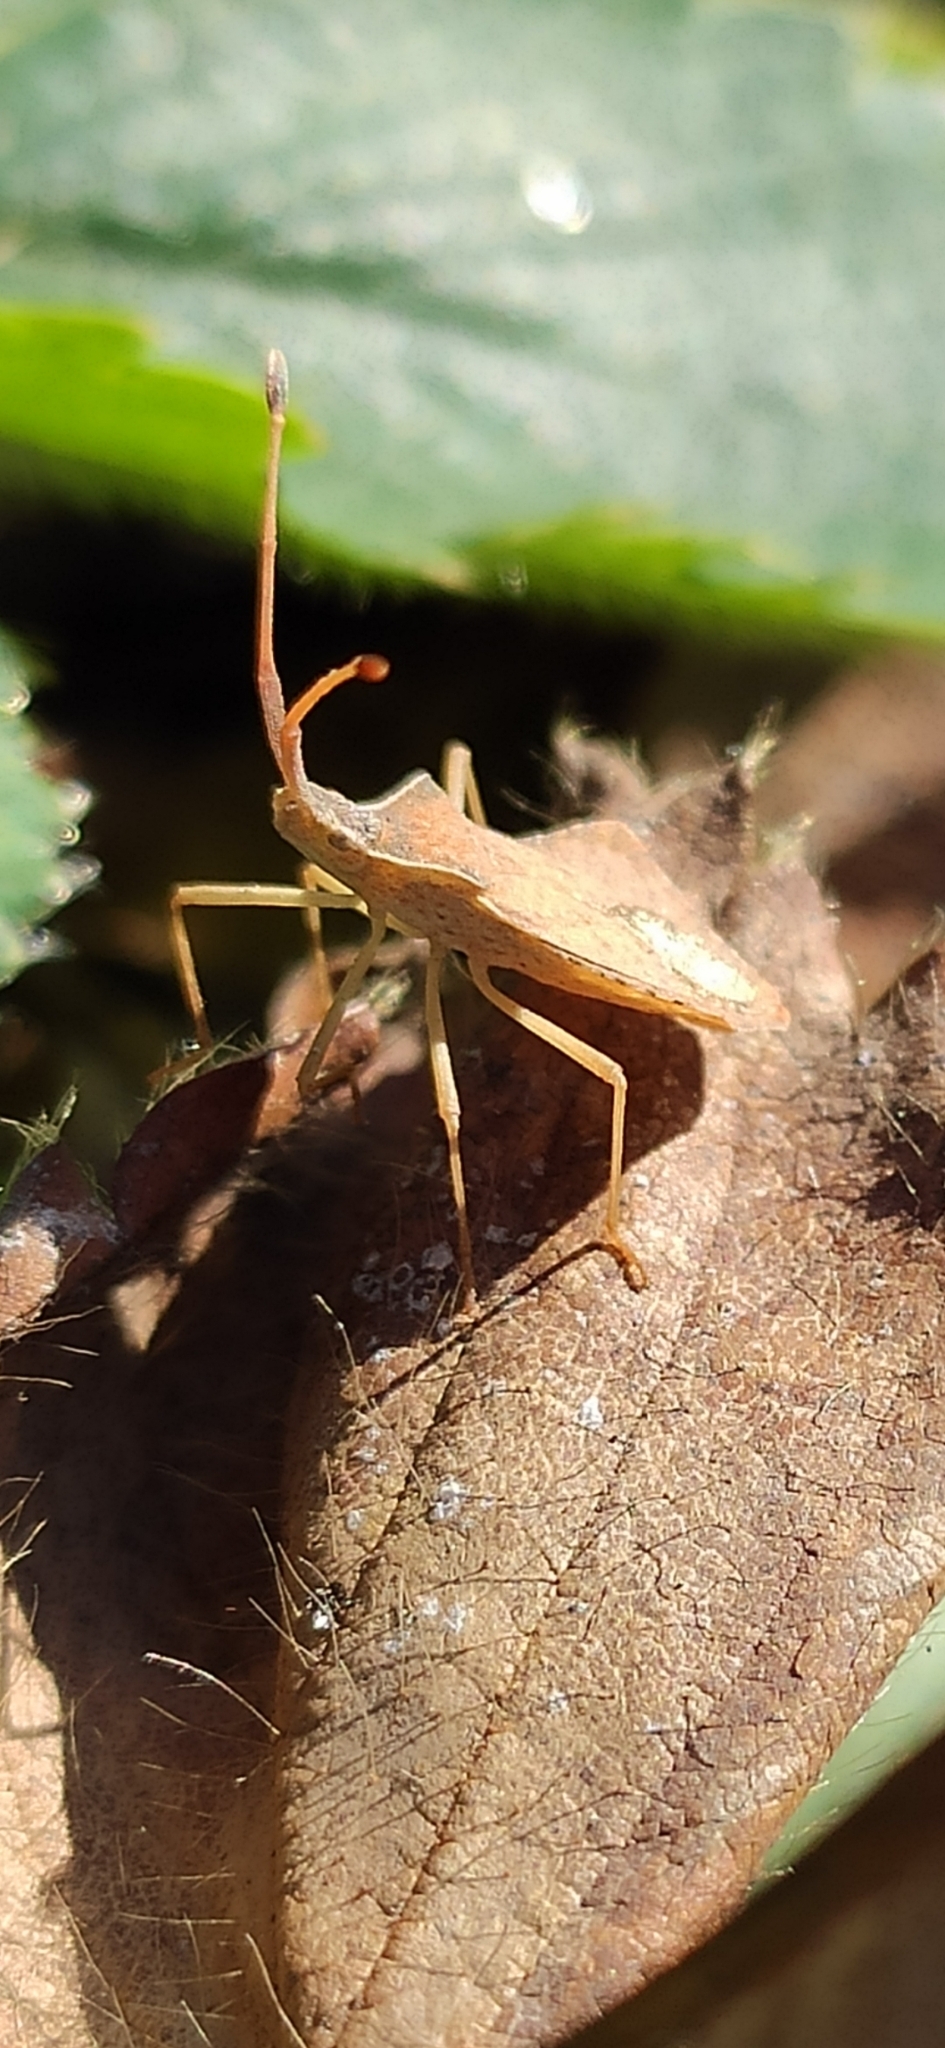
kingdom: Animalia
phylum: Arthropoda
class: Insecta
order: Hemiptera
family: Coreidae
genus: Syromastus
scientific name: Syromastus rhombeus
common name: Rhombic leatherbug
